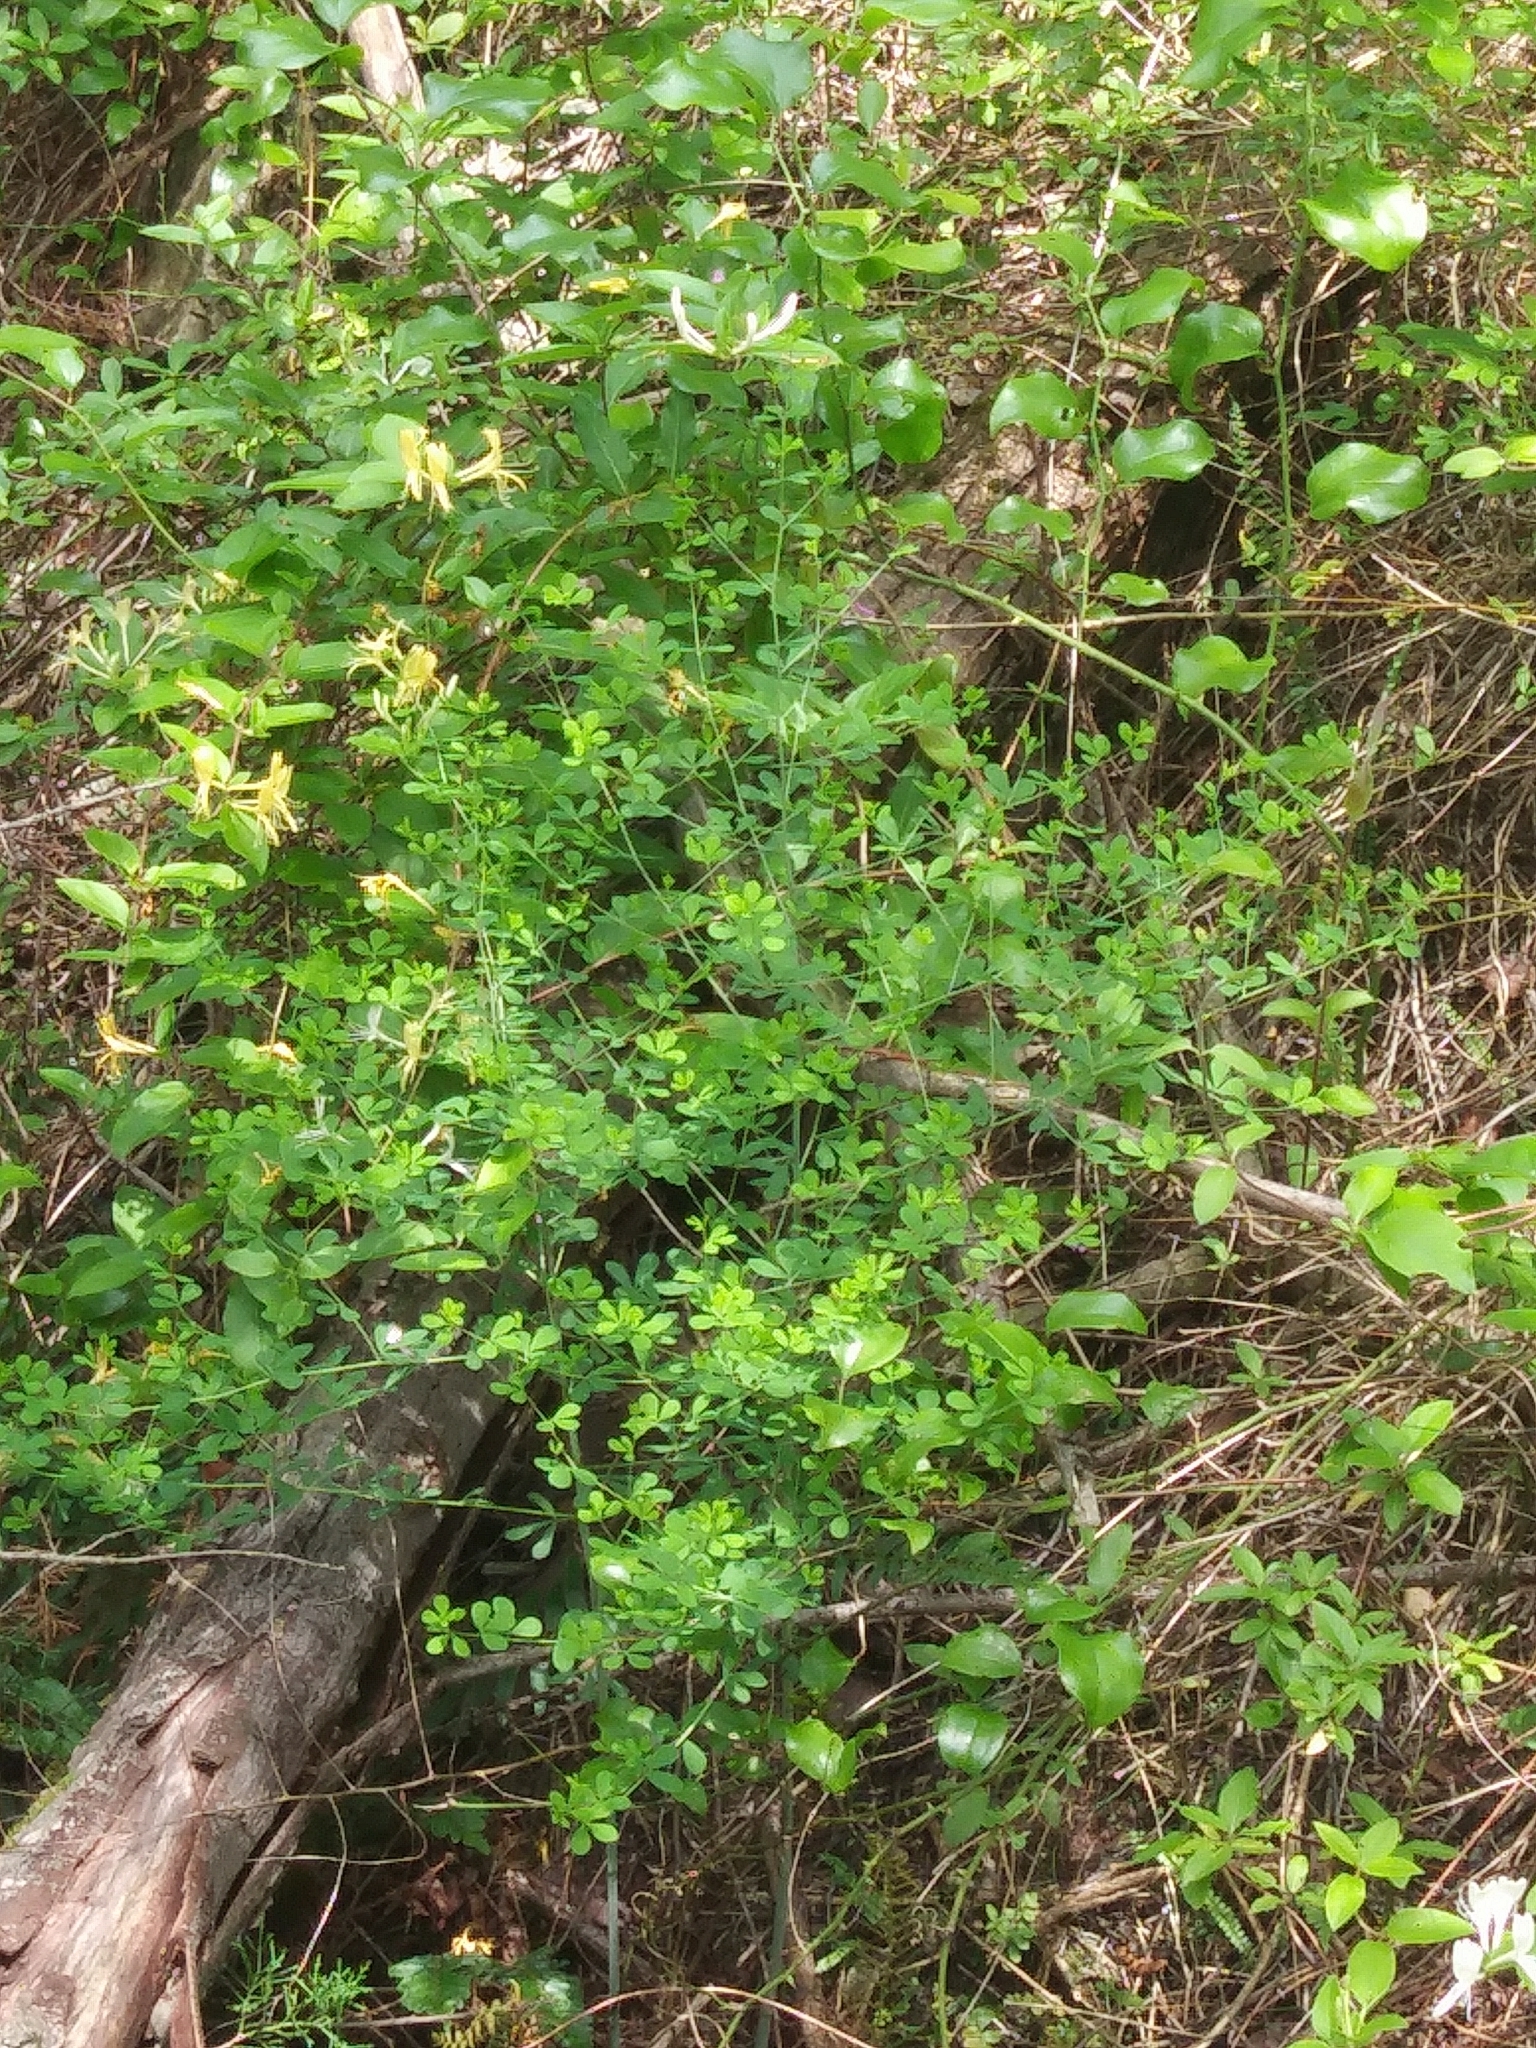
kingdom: Plantae
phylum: Tracheophyta
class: Magnoliopsida
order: Fabales
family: Fabaceae
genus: Baptisia
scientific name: Baptisia tinctoria
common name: Wild indigo
